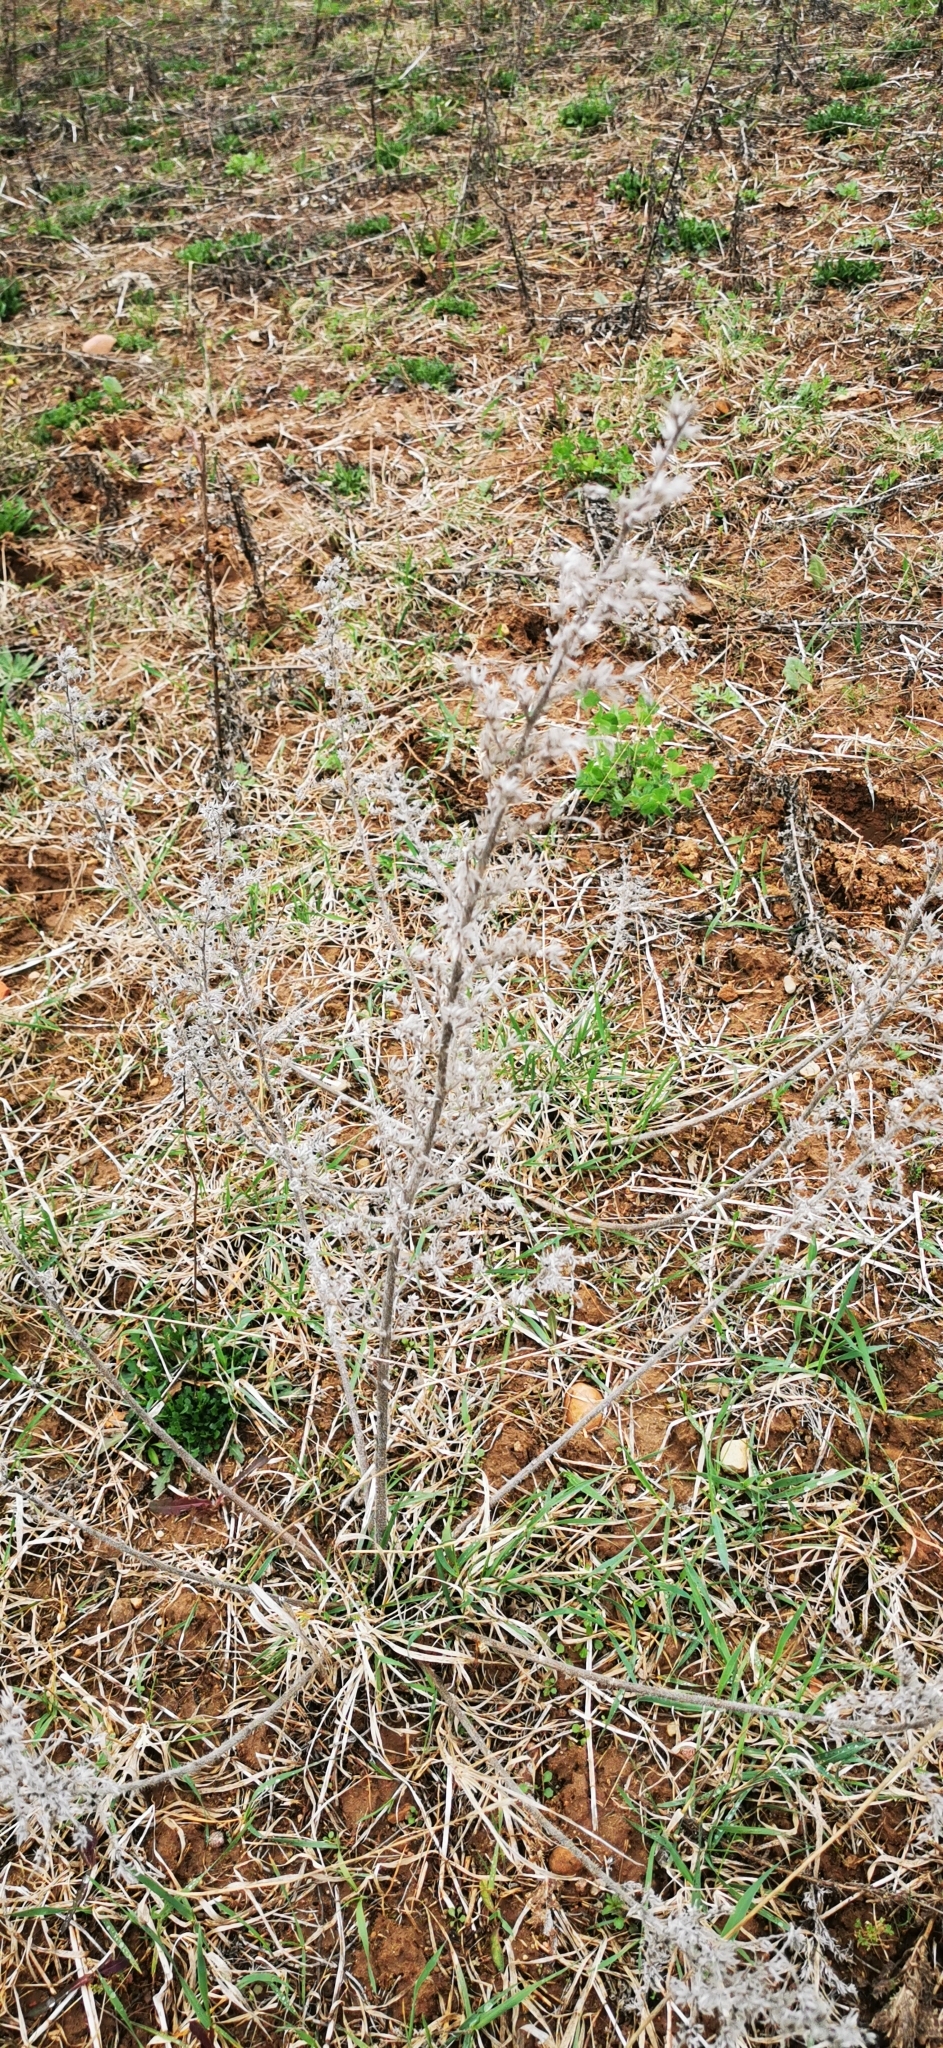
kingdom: Plantae
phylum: Tracheophyta
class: Magnoliopsida
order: Boraginales
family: Boraginaceae
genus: Echium
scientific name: Echium vulgare
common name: Common viper's bugloss
